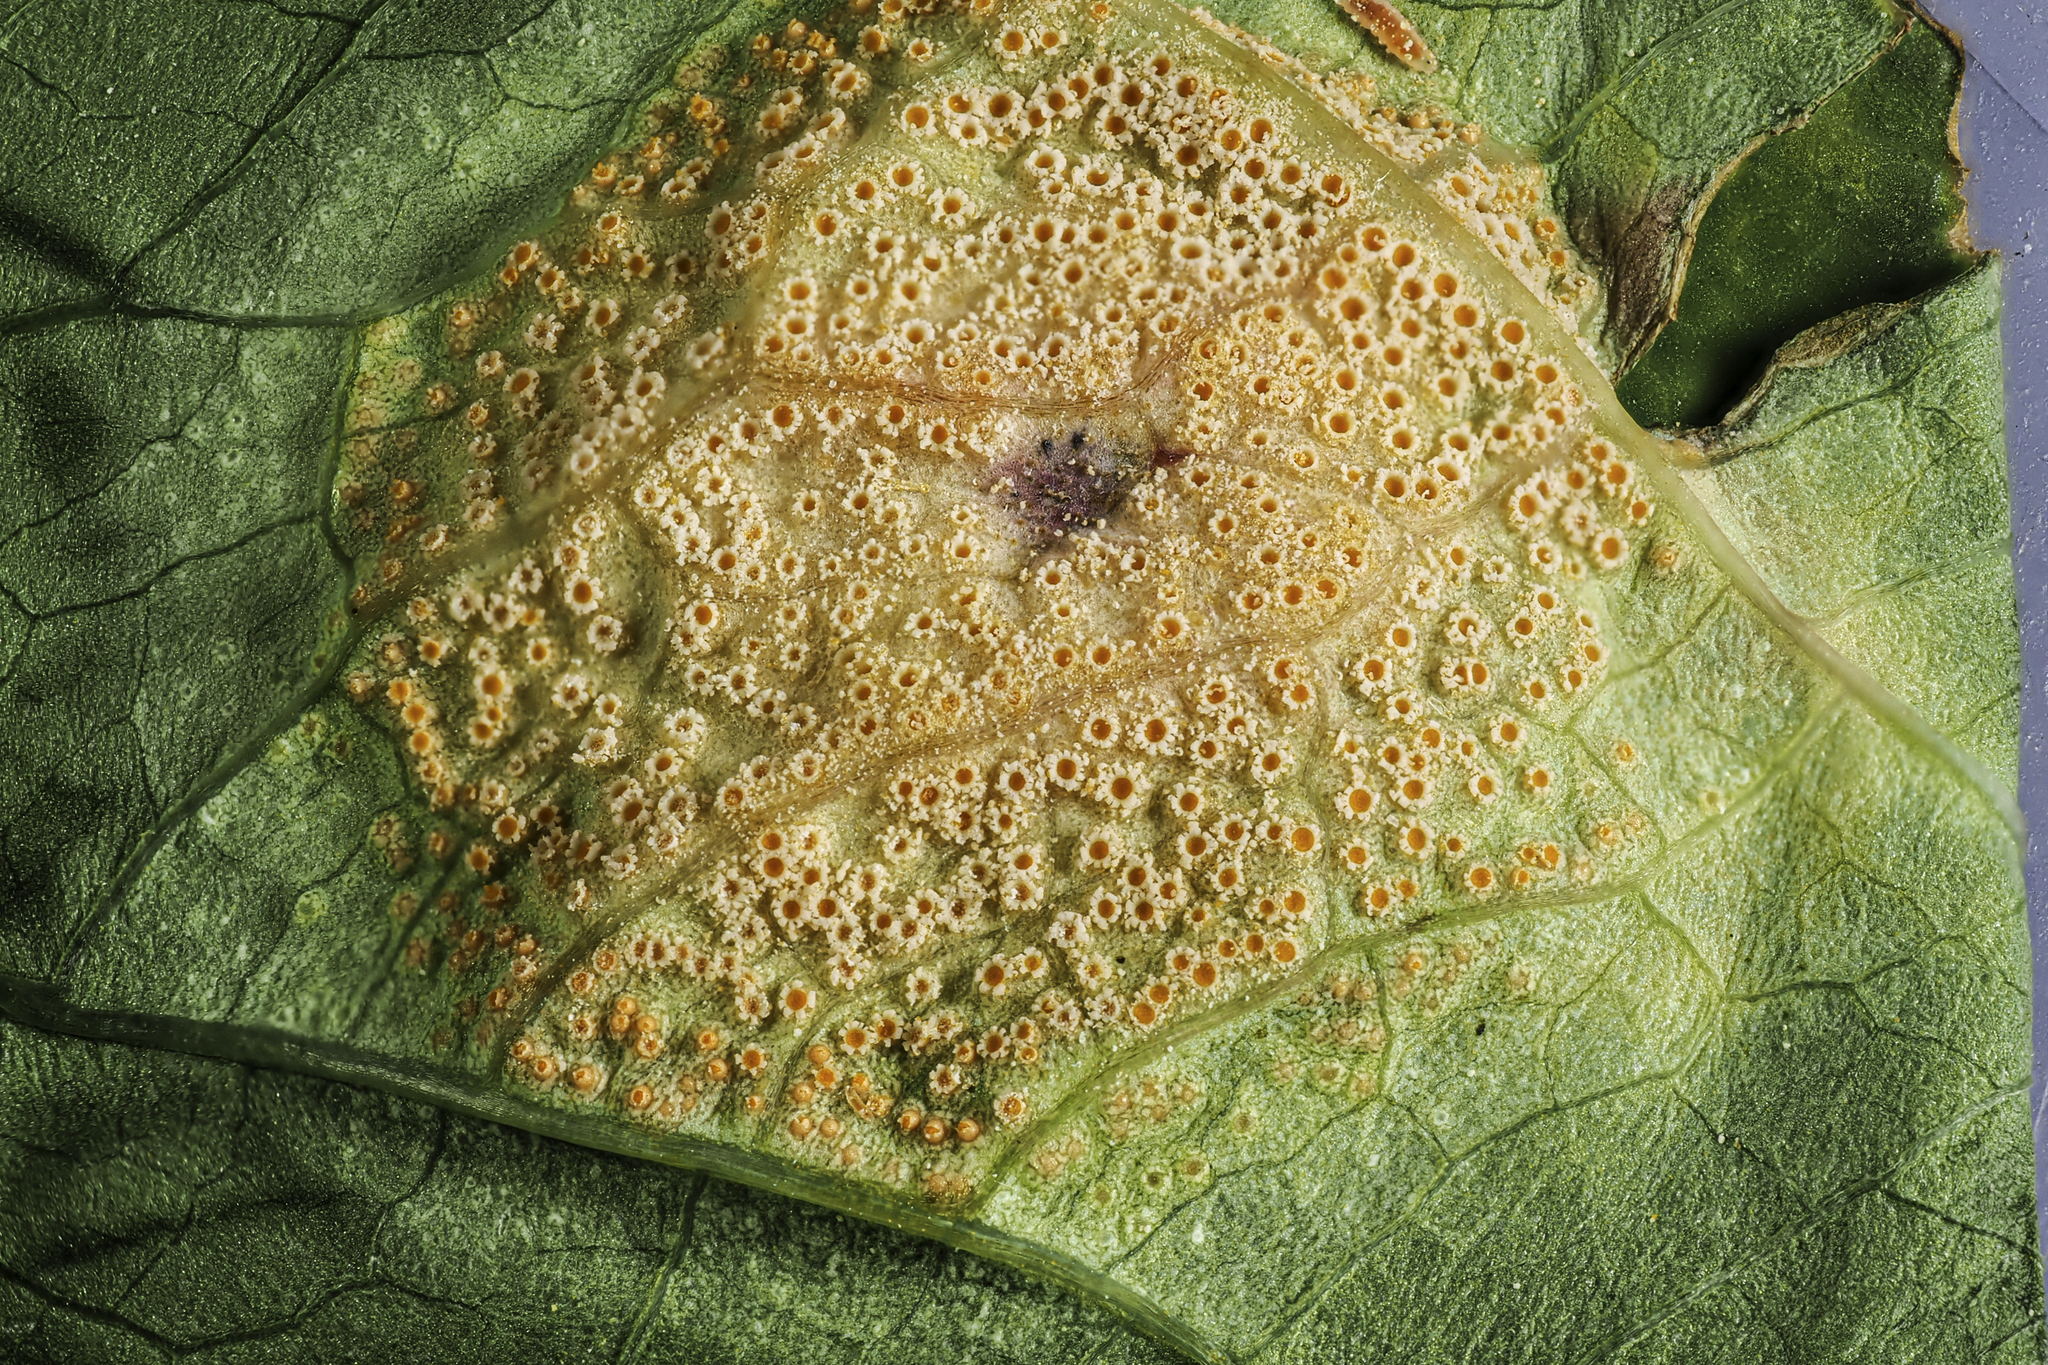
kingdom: Fungi
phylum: Basidiomycota
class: Pucciniomycetes
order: Pucciniales
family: Pucciniaceae
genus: Puccinia
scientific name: Puccinia recondita
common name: Brown rust of wheat
